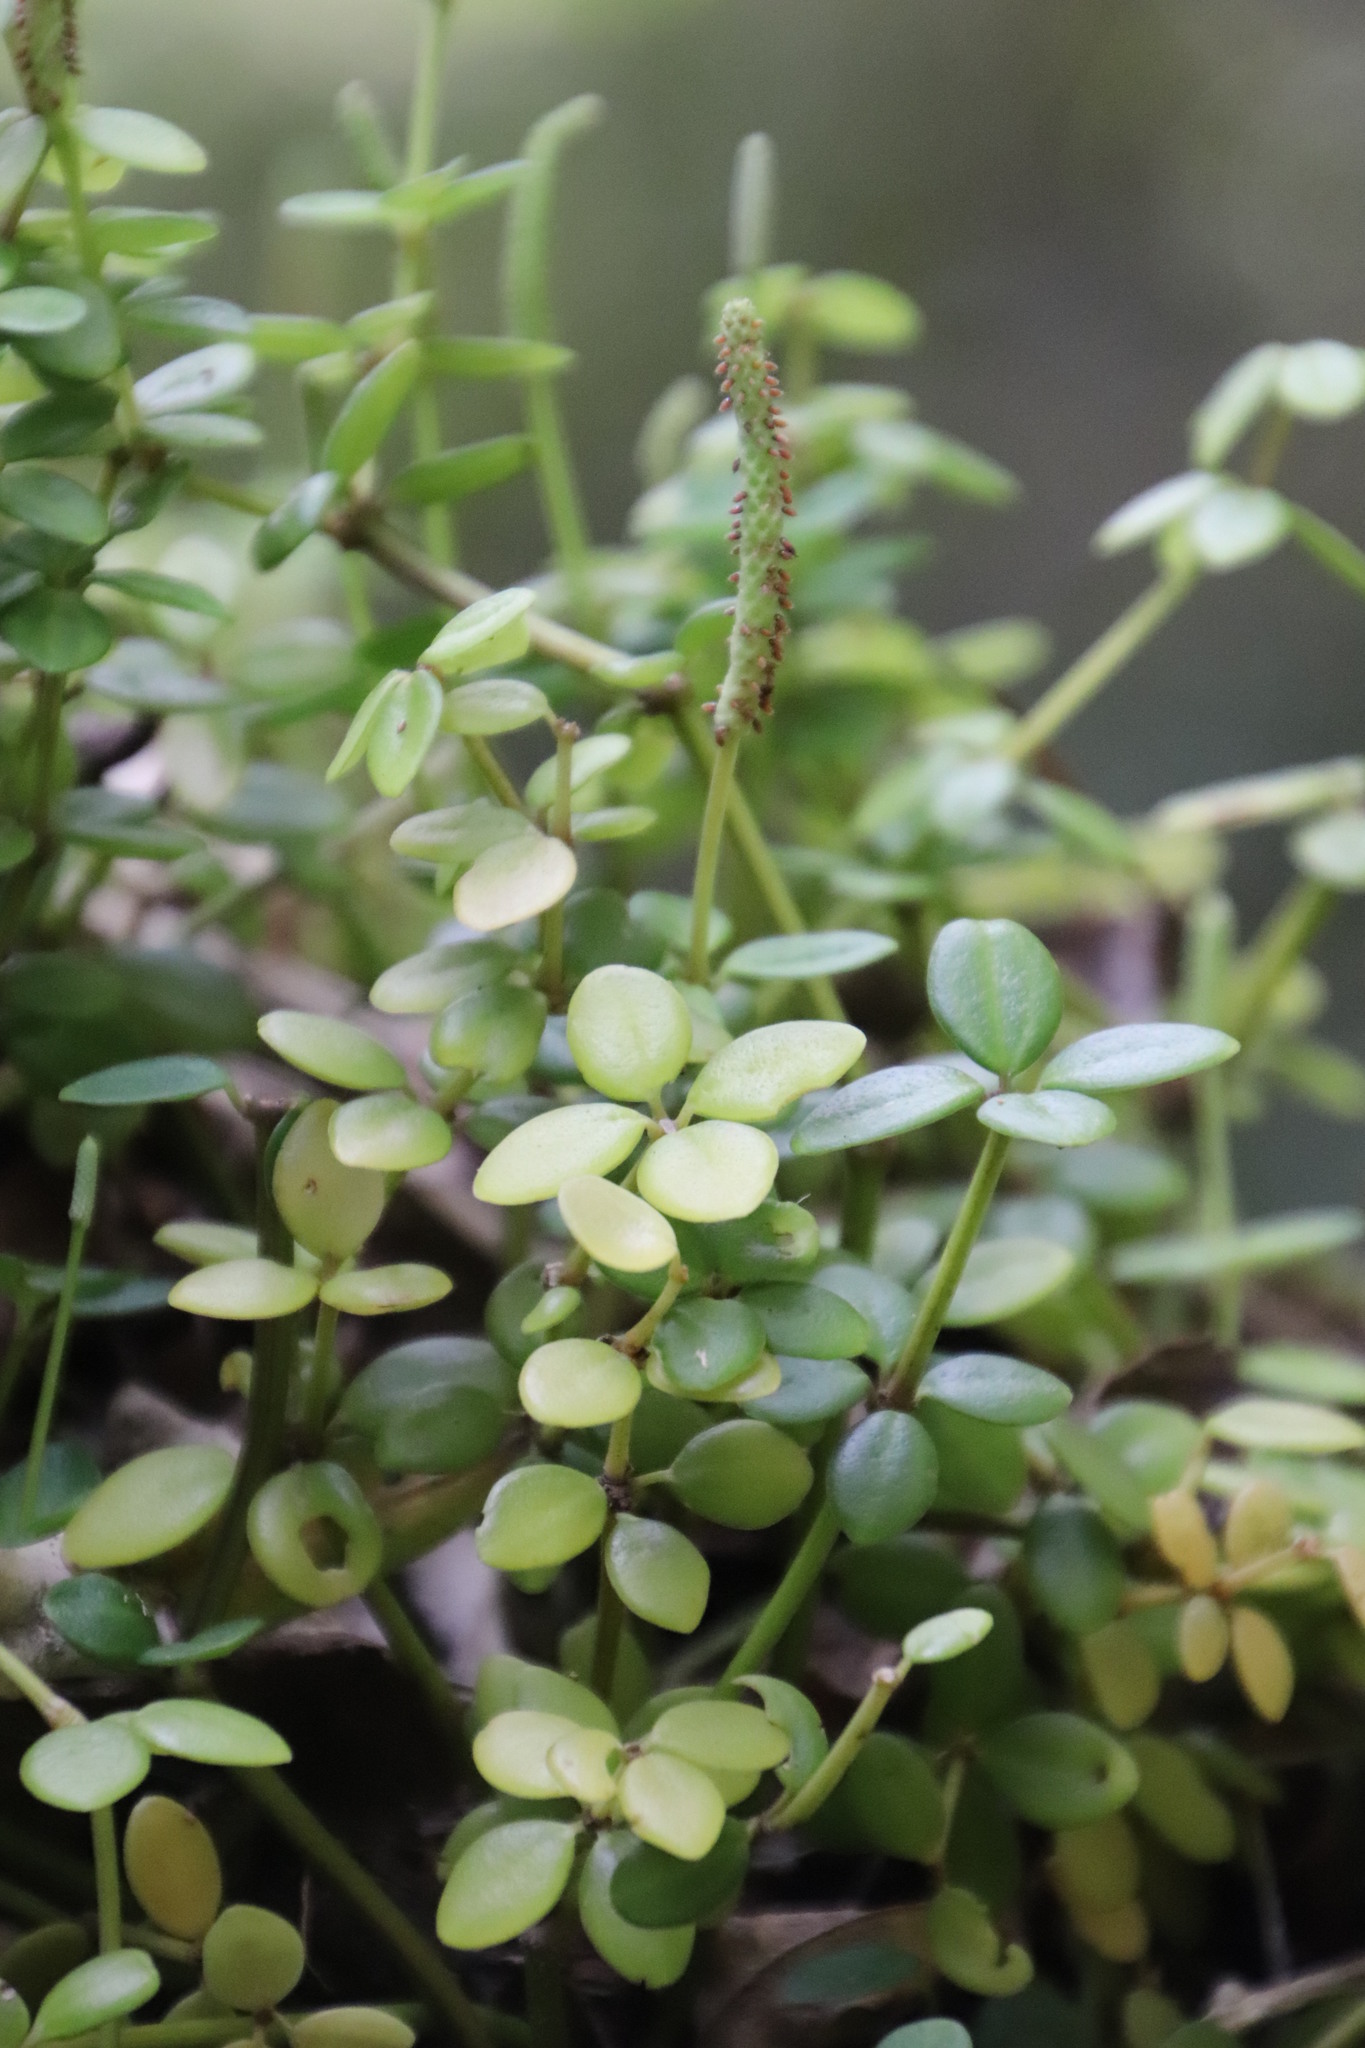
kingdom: Plantae
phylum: Tracheophyta
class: Magnoliopsida
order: Piperales
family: Piperaceae
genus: Peperomia
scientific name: Peperomia tetraphylla
